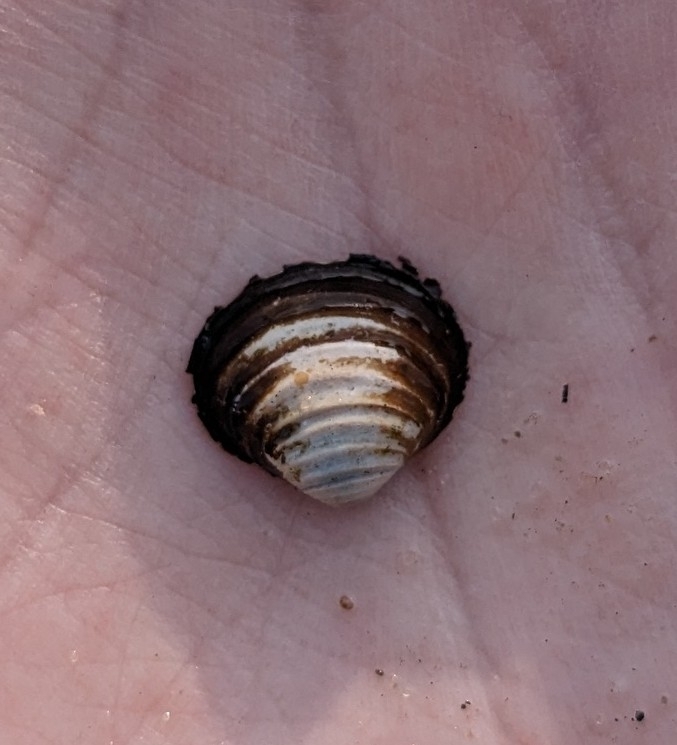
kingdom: Animalia
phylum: Mollusca
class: Bivalvia
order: Venerida
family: Cyrenidae
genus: Corbicula
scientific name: Corbicula fluminea
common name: Asian clam
